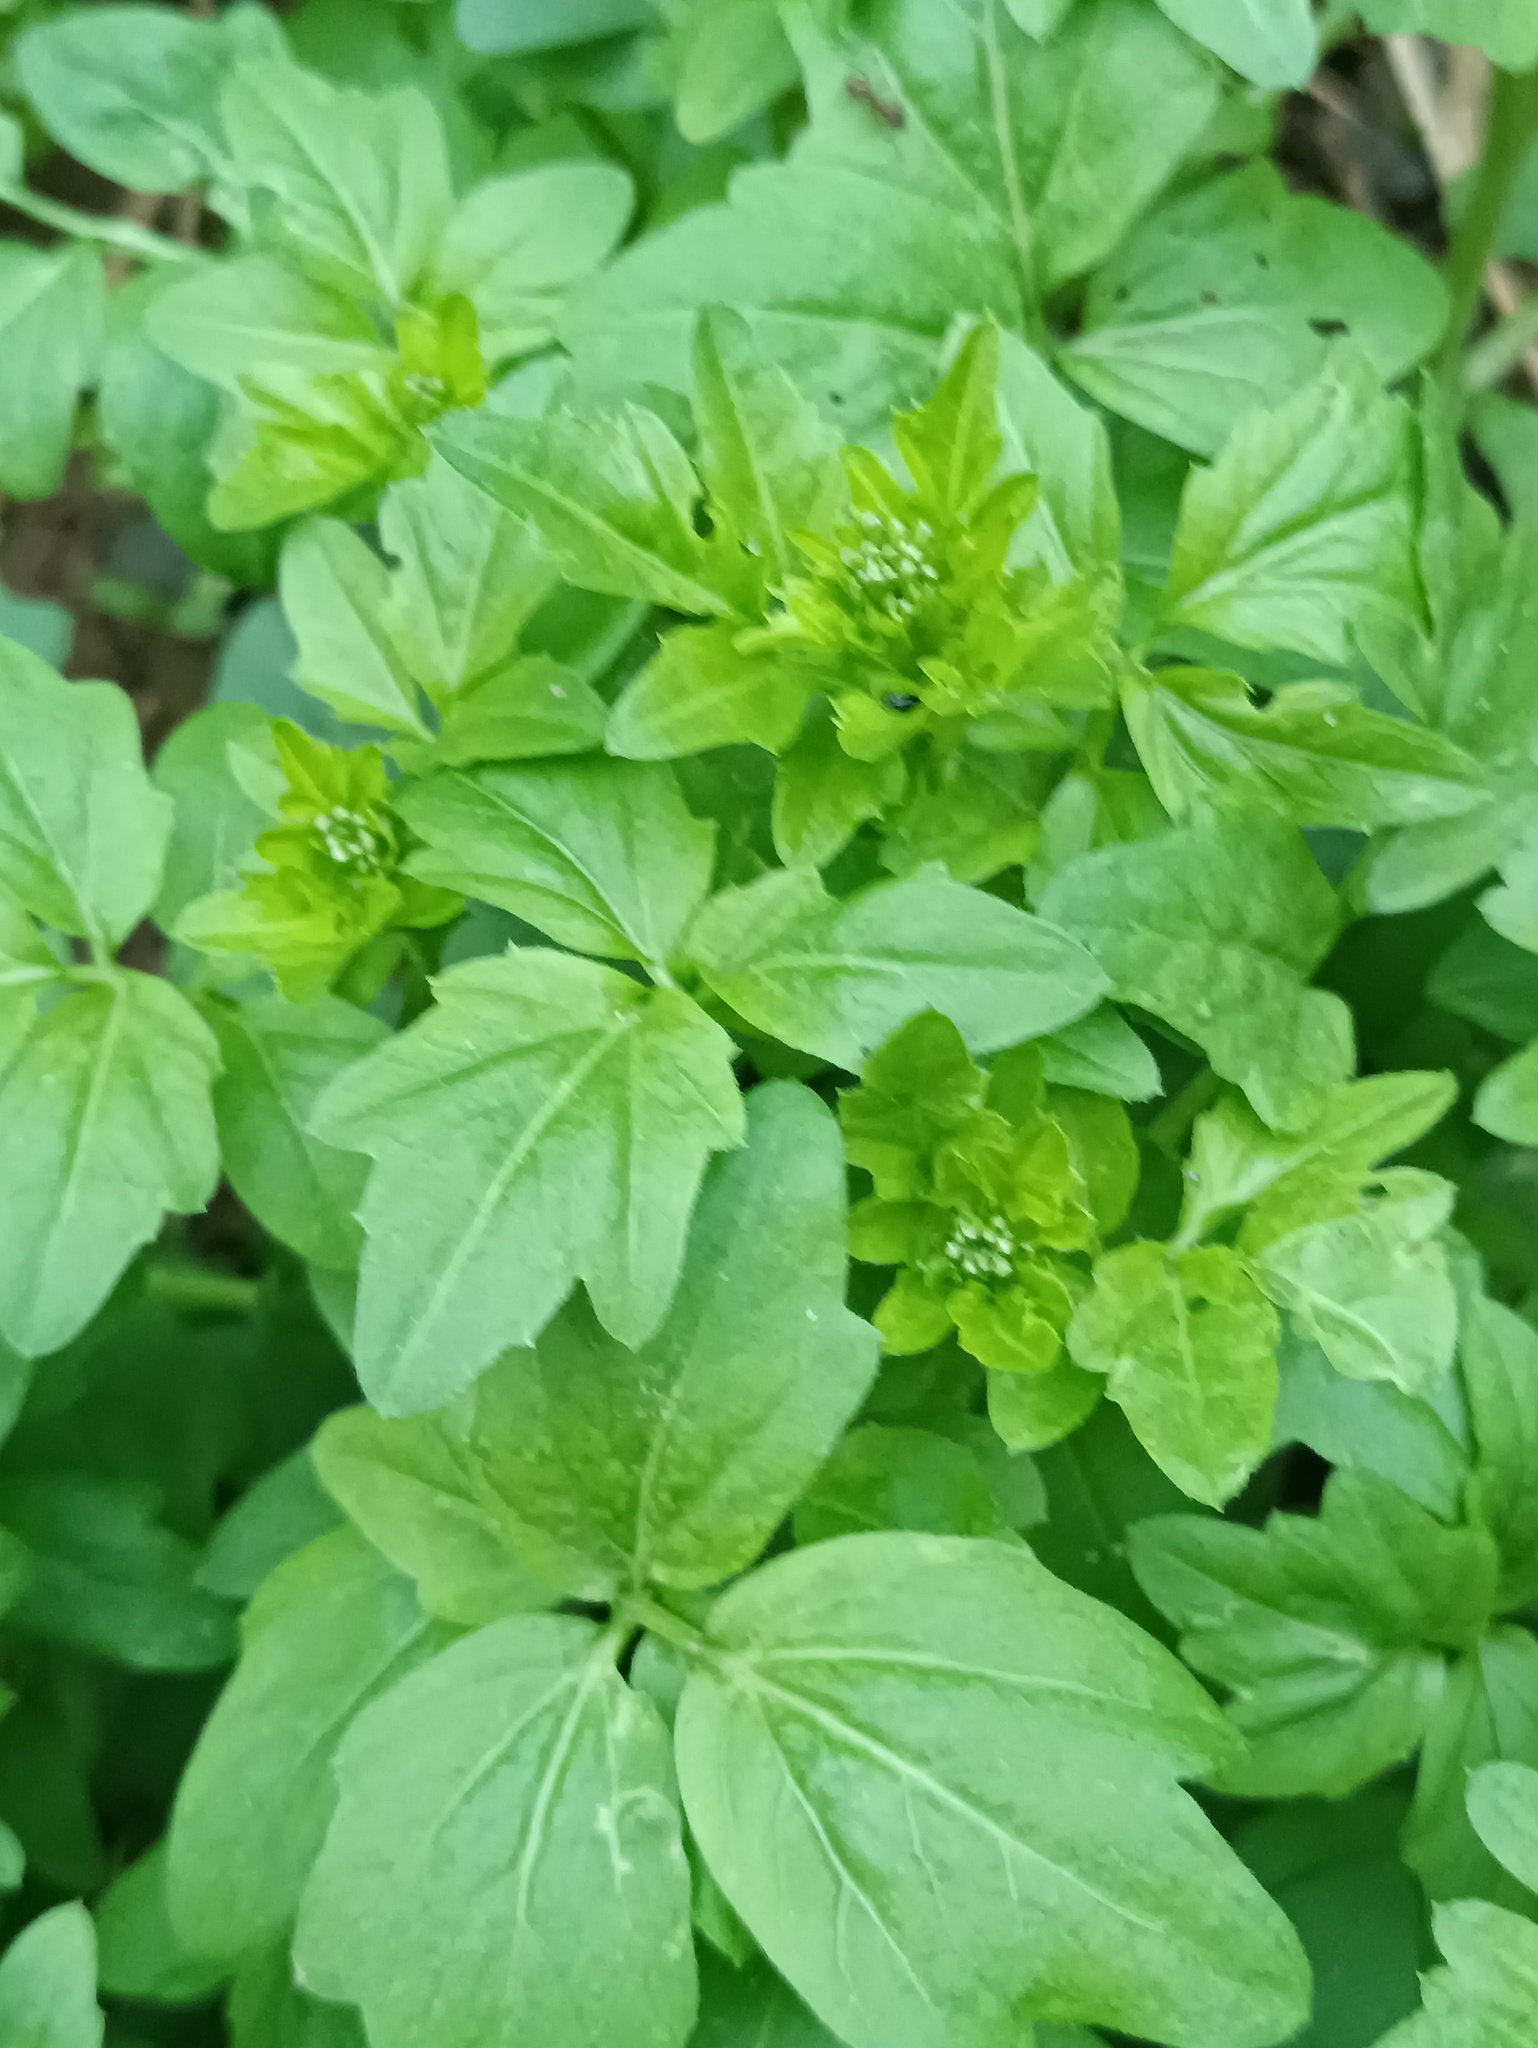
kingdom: Plantae
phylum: Tracheophyta
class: Magnoliopsida
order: Brassicales
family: Brassicaceae
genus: Cardamine
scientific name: Cardamine amara
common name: Large bitter-cress
